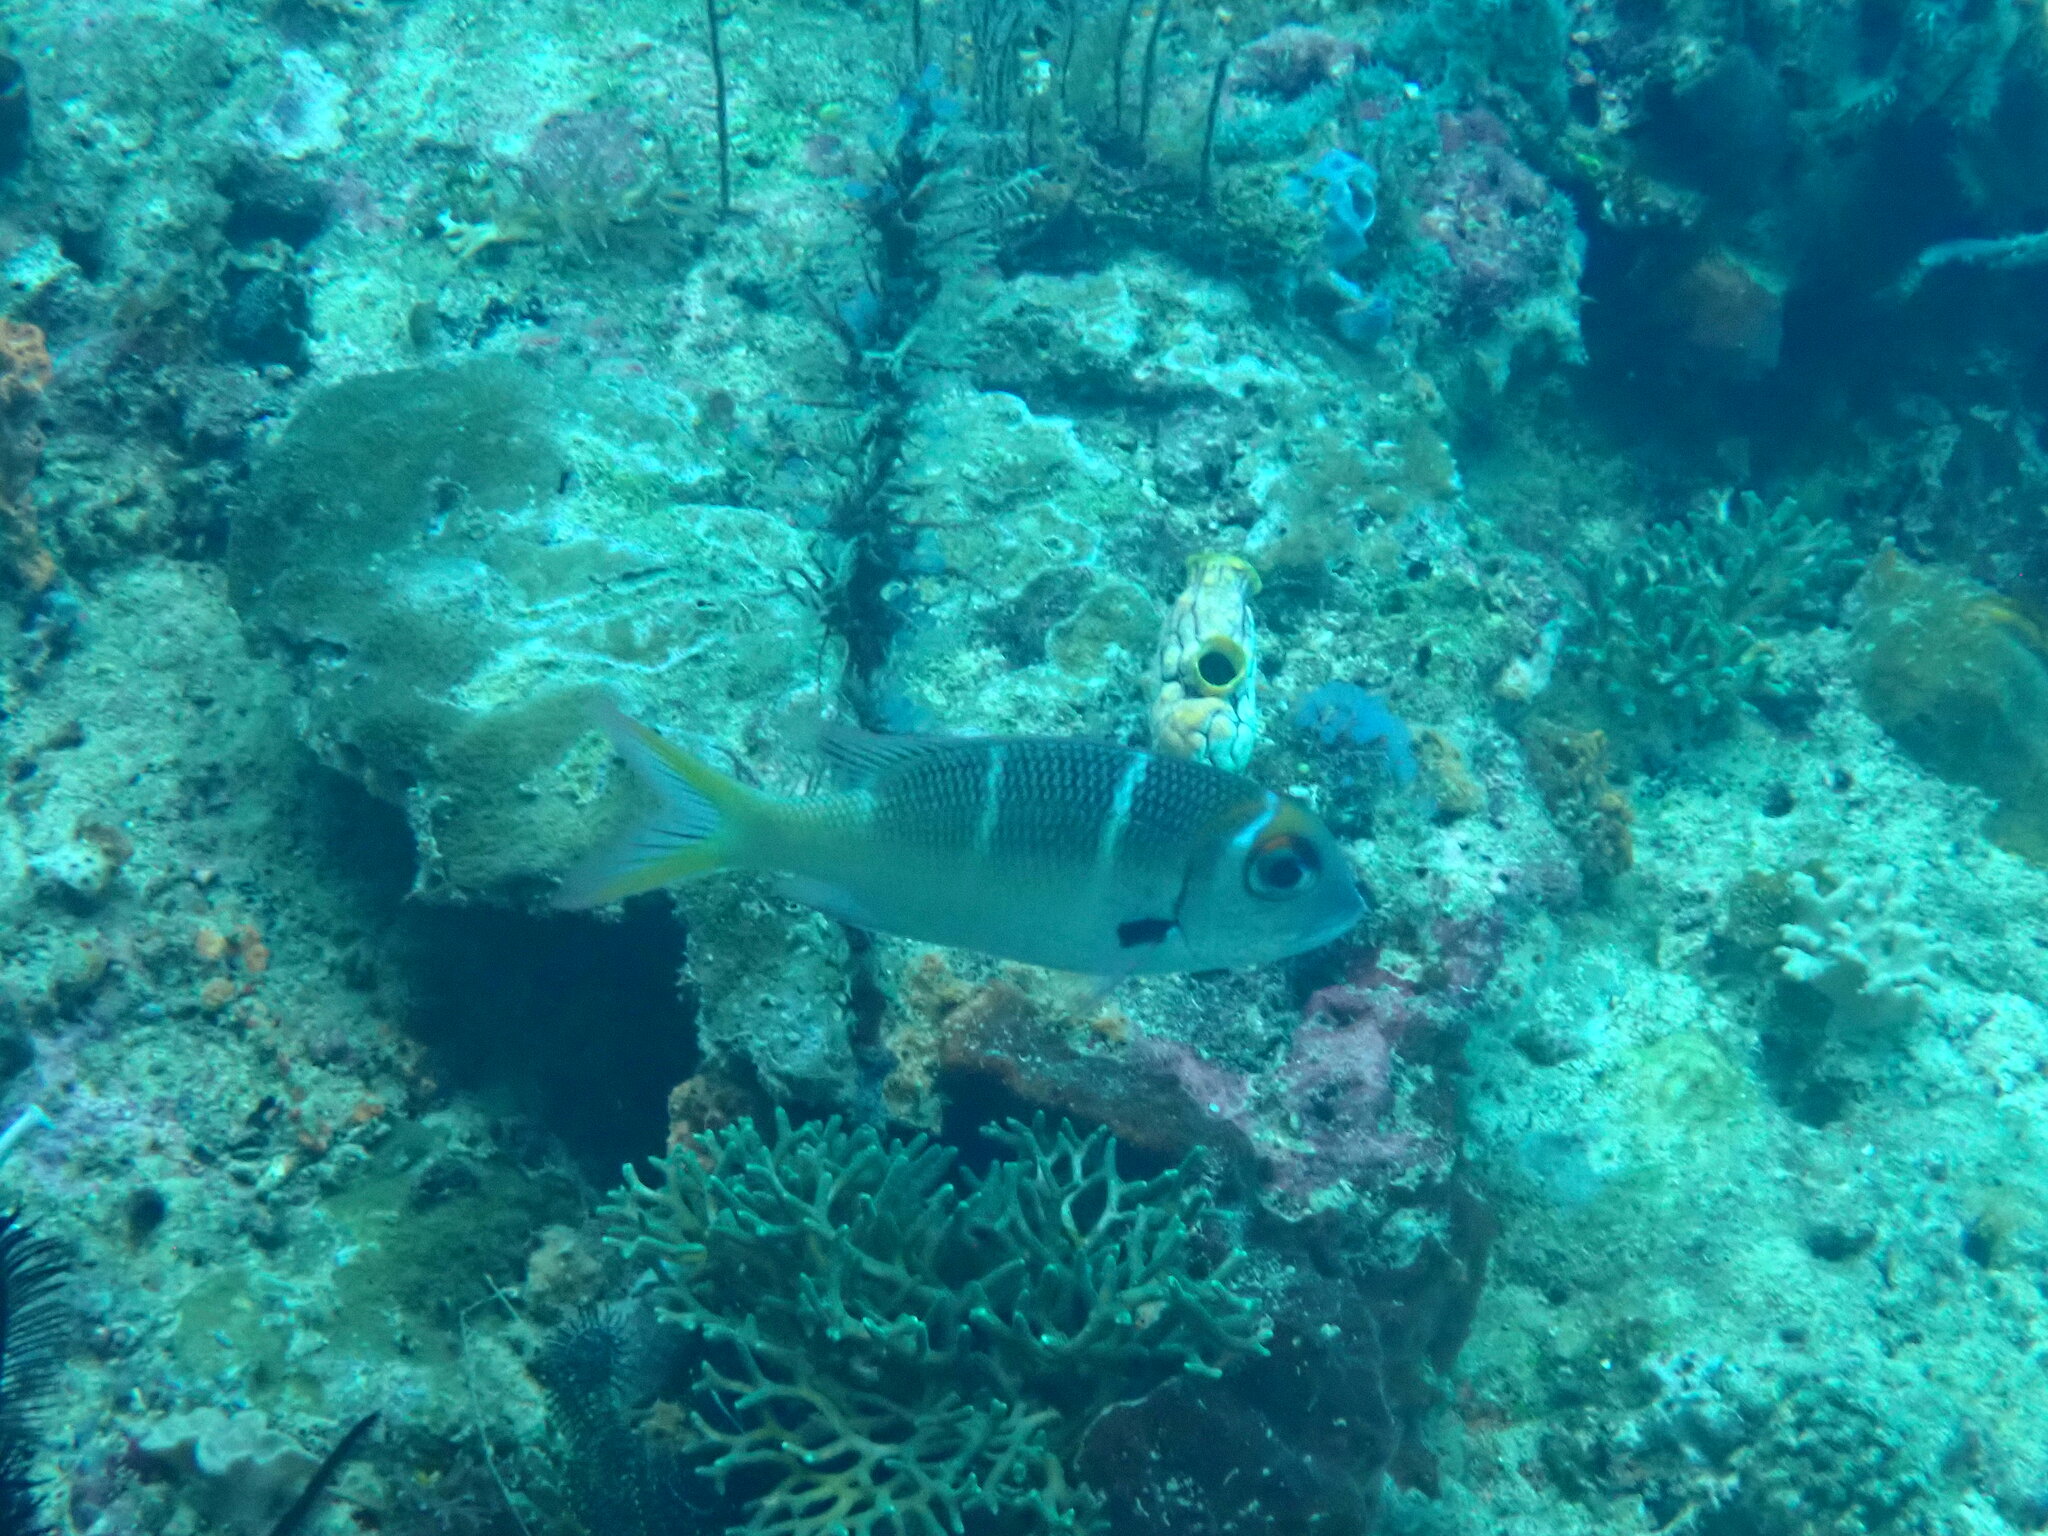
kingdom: Animalia
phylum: Chordata
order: Perciformes
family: Lethrinidae
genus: Monotaxis
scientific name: Monotaxis heterodon
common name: Redfin emperor
